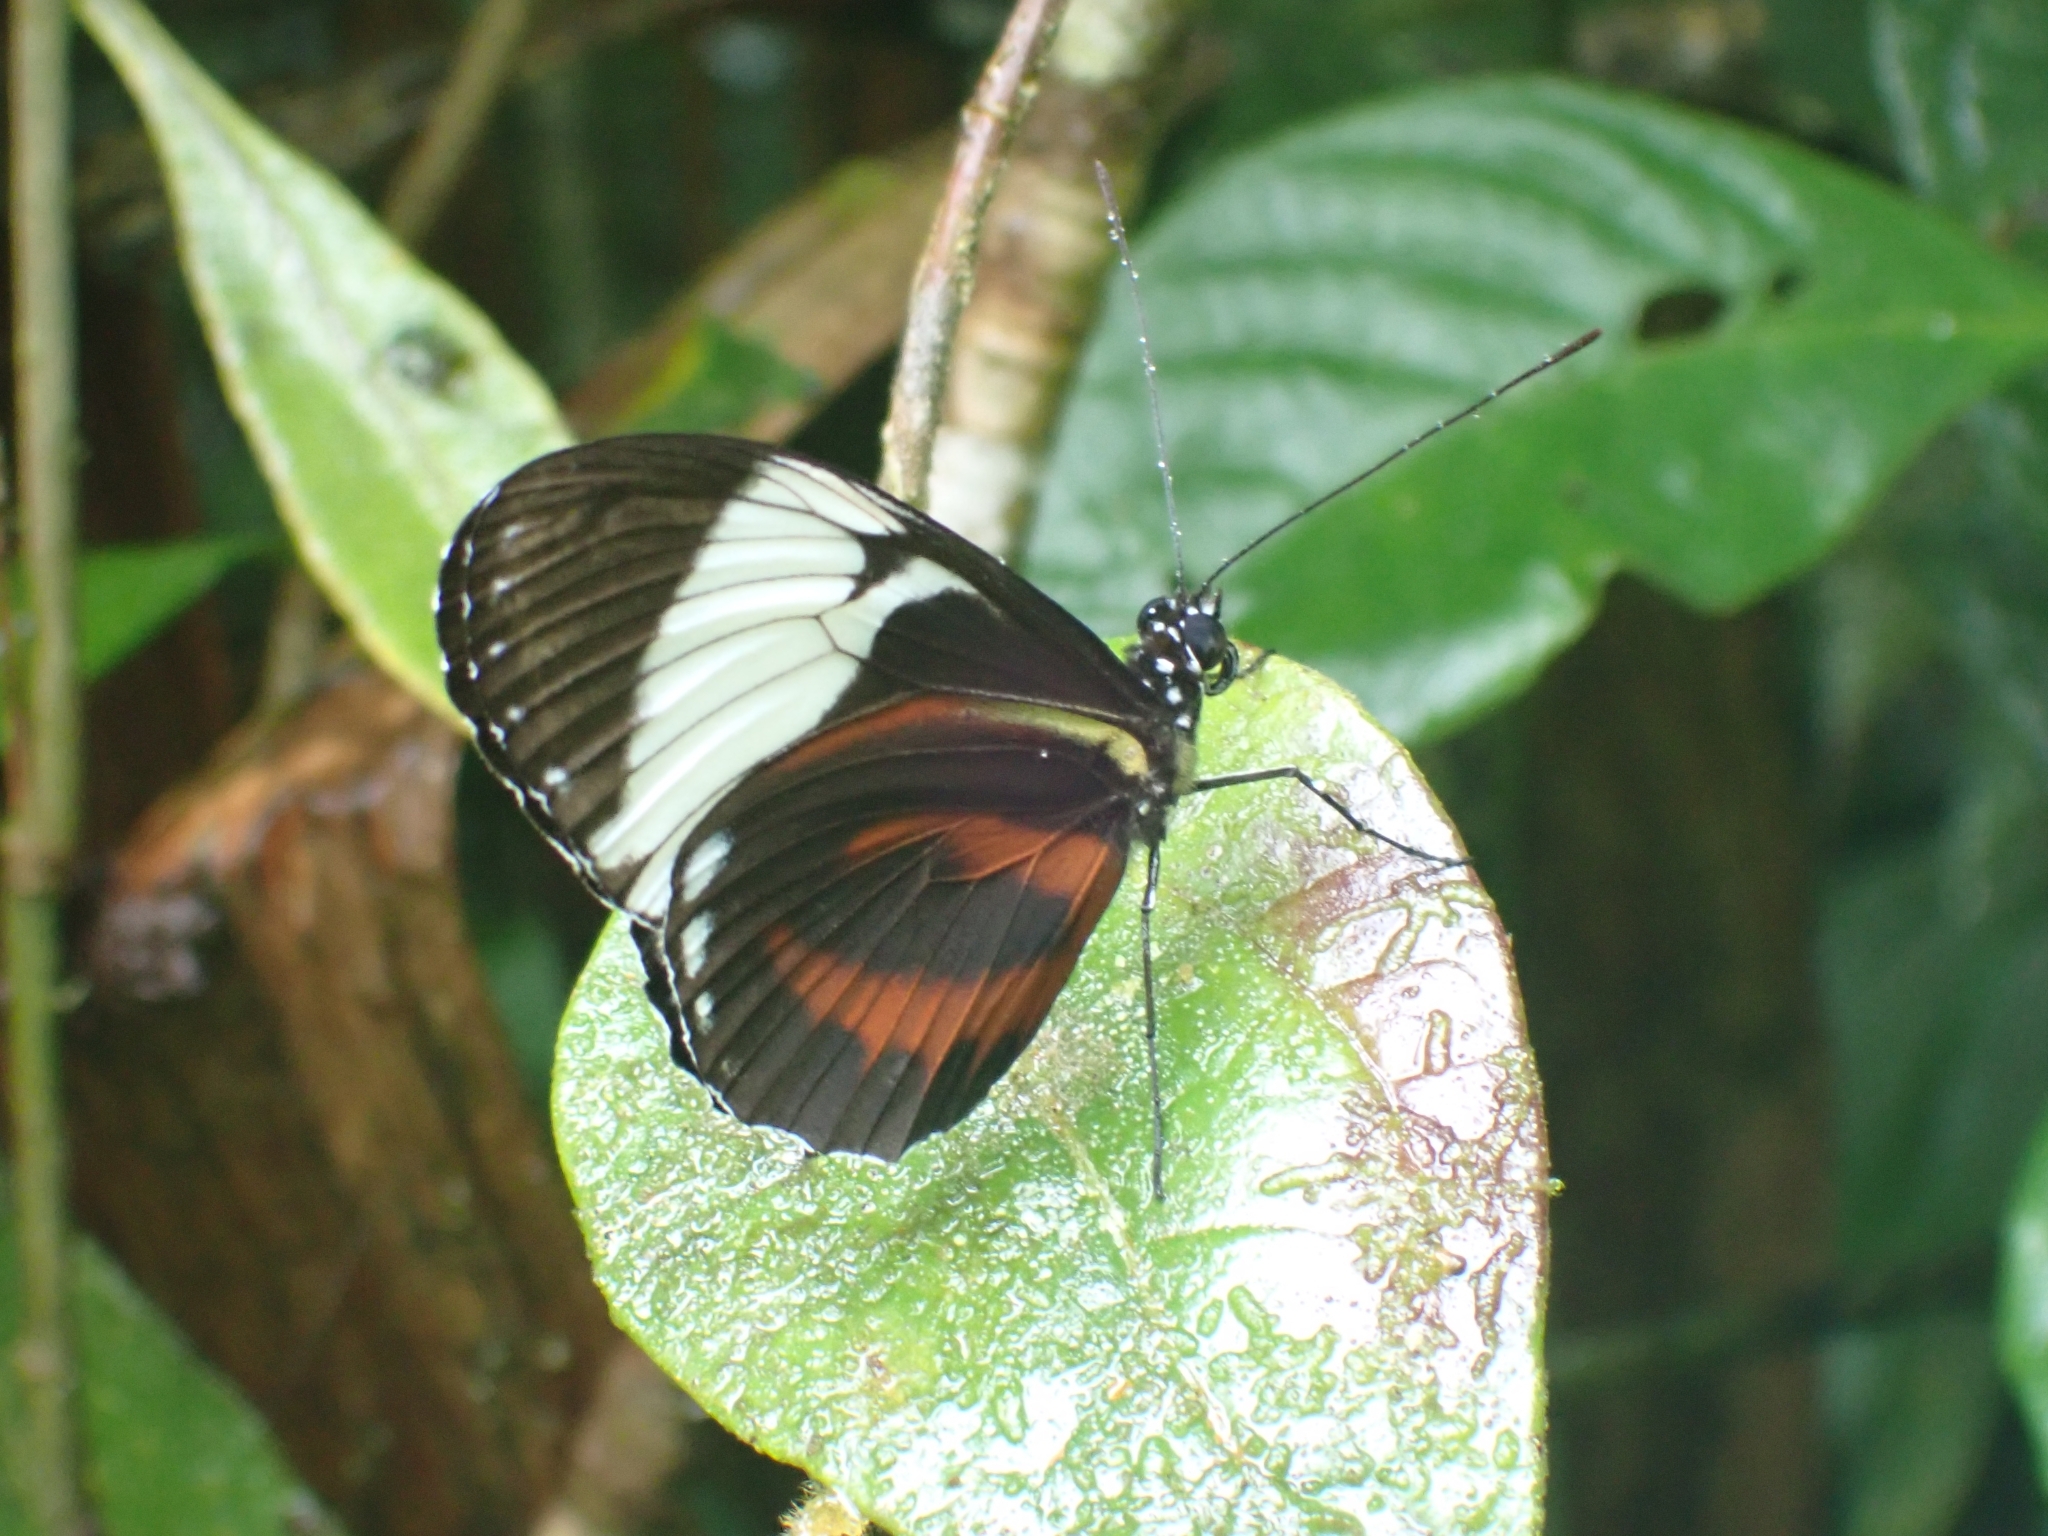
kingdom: Animalia
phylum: Arthropoda
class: Insecta
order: Lepidoptera
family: Nymphalidae
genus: Heliconius
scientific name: Heliconius cydno
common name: Cydno longwing
